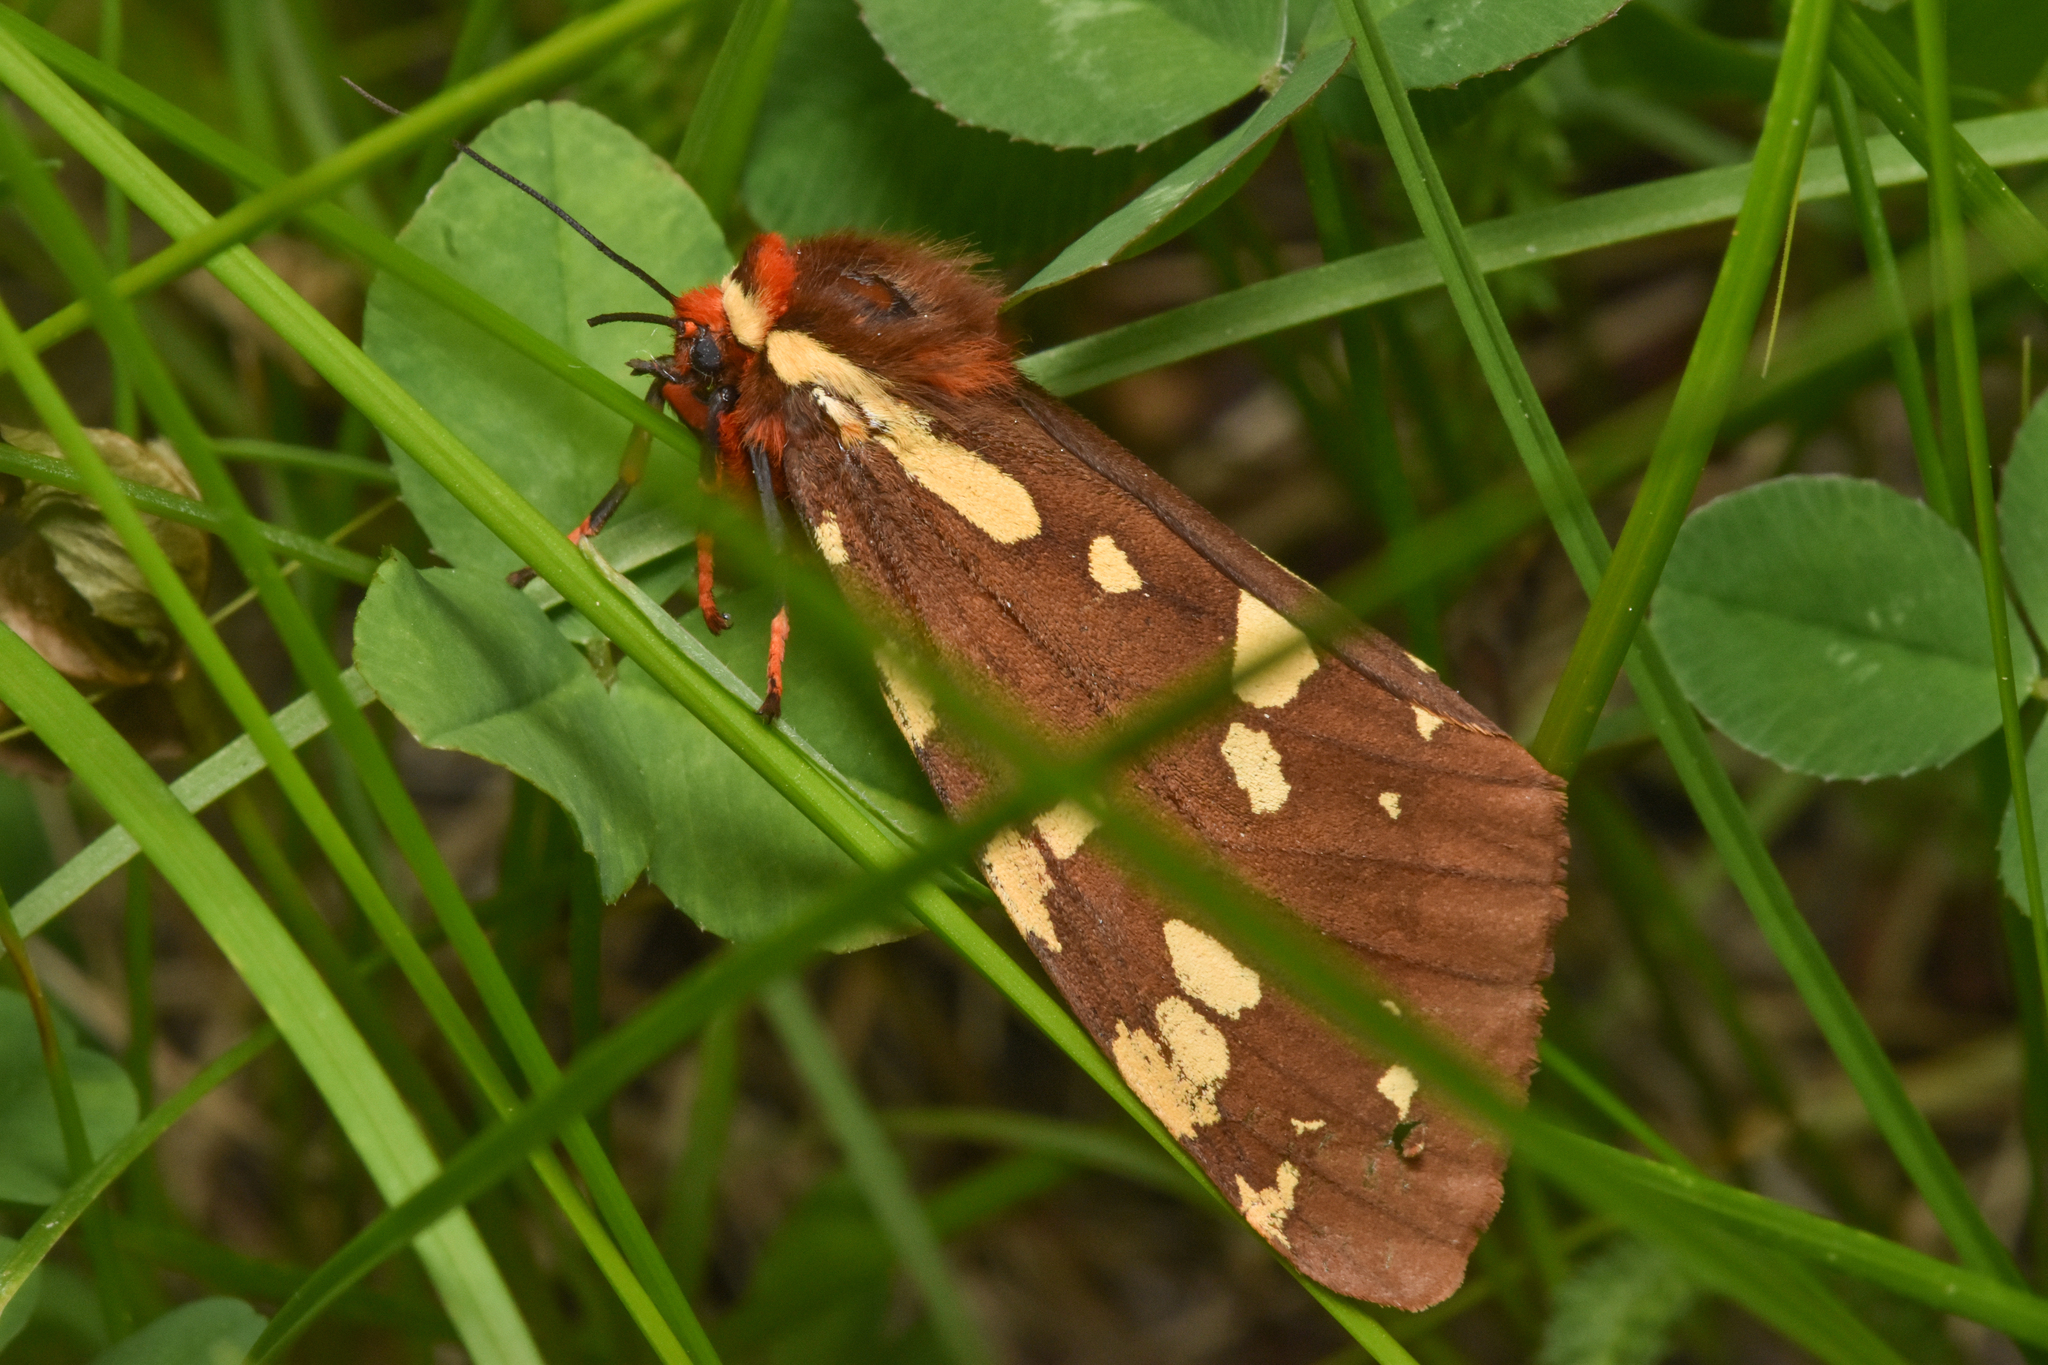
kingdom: Animalia
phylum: Arthropoda
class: Insecta
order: Lepidoptera
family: Erebidae
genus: Arctia
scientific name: Arctia parthenos
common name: St. lawrence tiger moth
